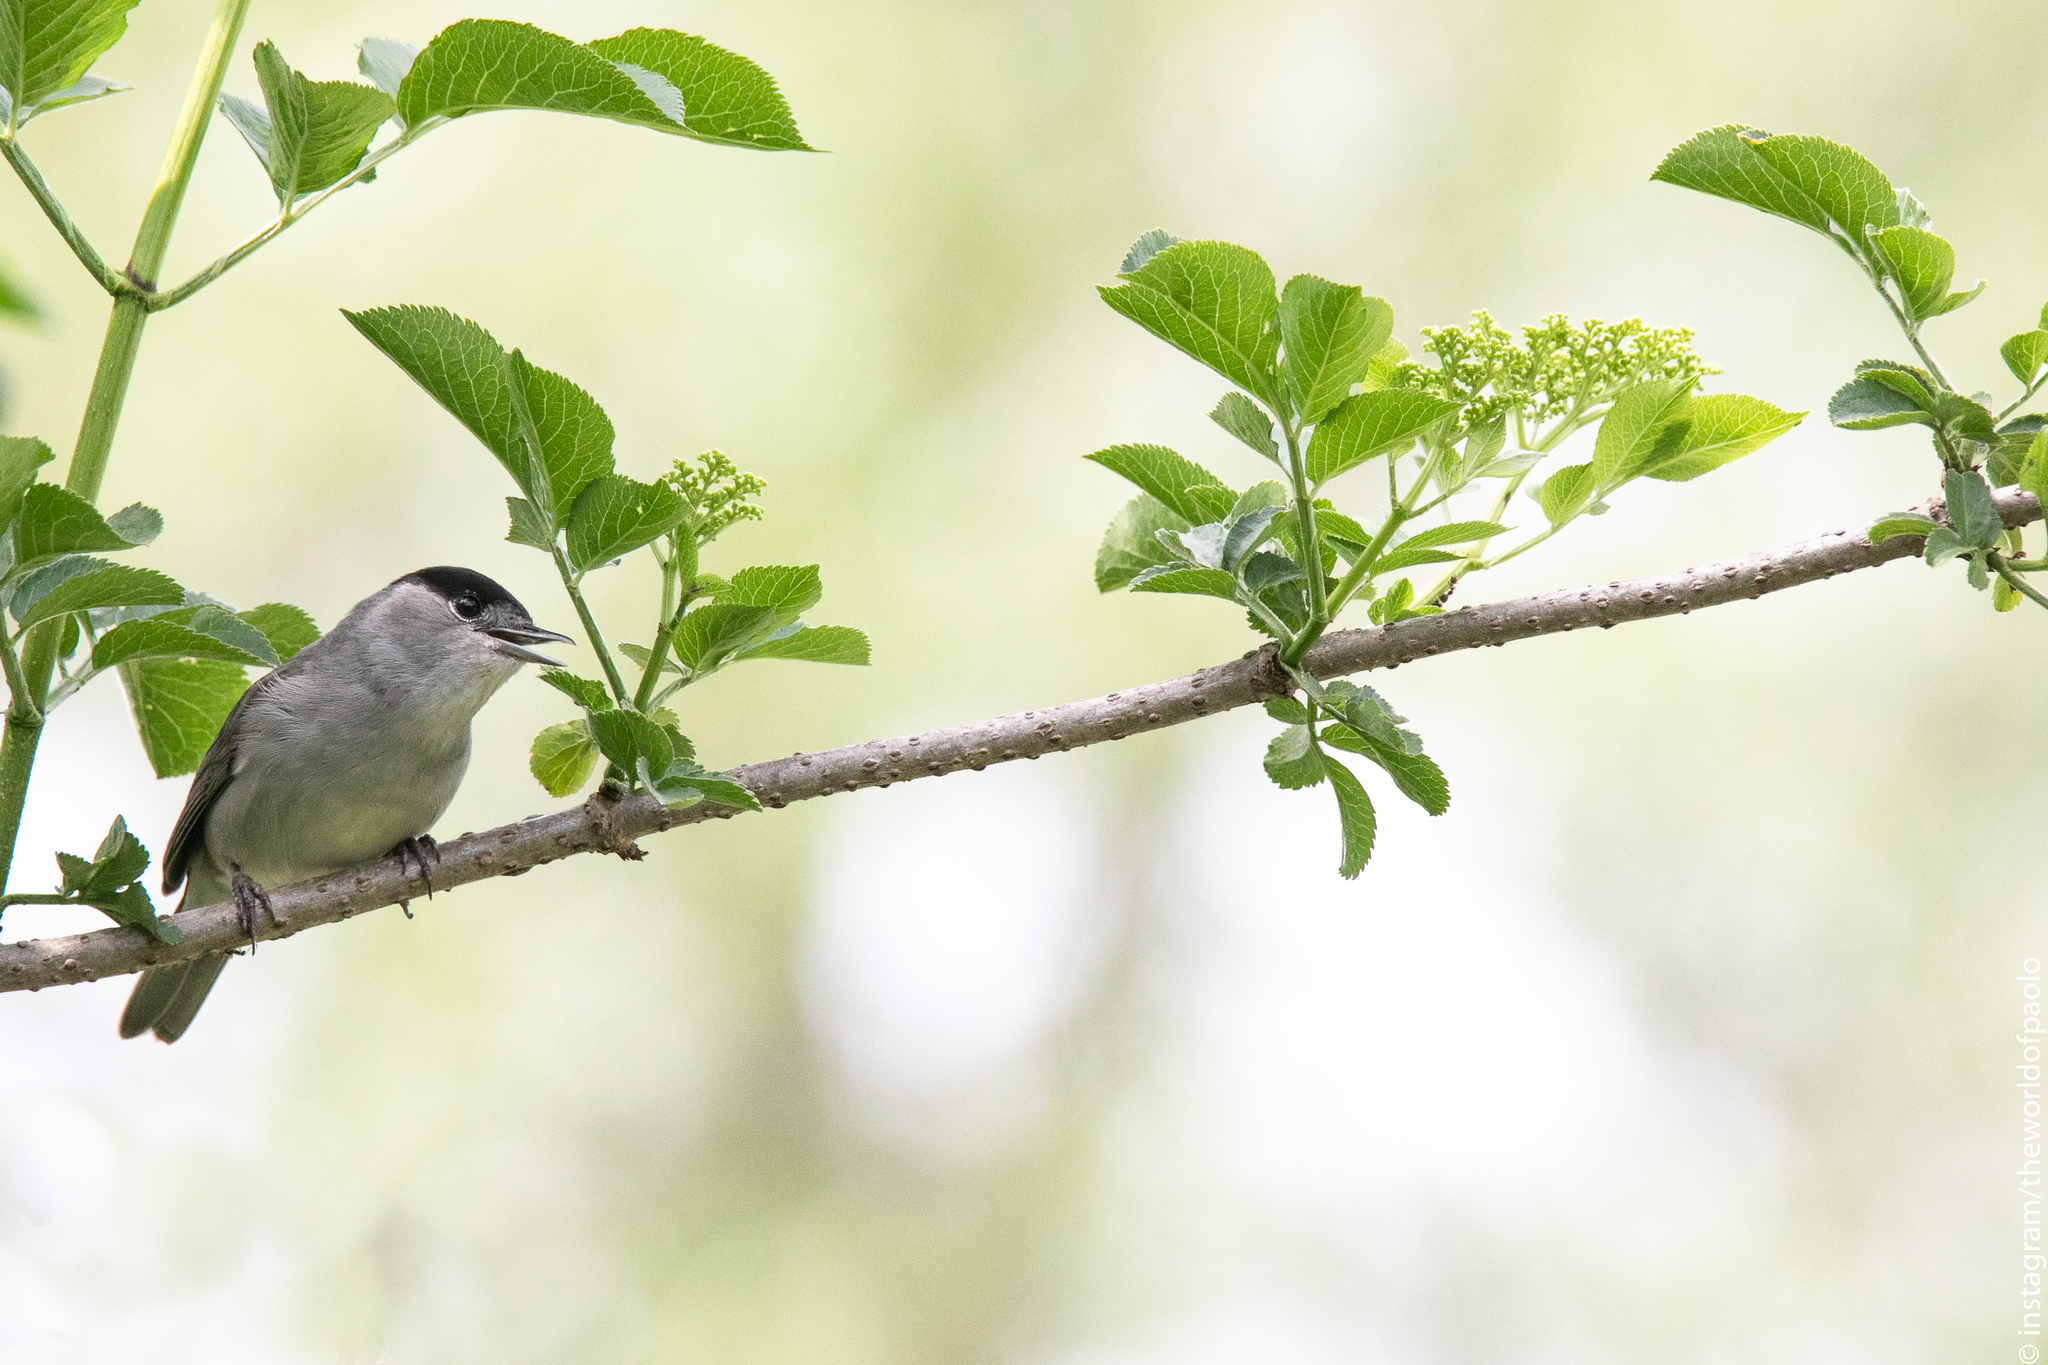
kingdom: Animalia
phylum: Chordata
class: Aves
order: Passeriformes
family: Sylviidae
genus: Sylvia
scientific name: Sylvia atricapilla
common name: Eurasian blackcap
